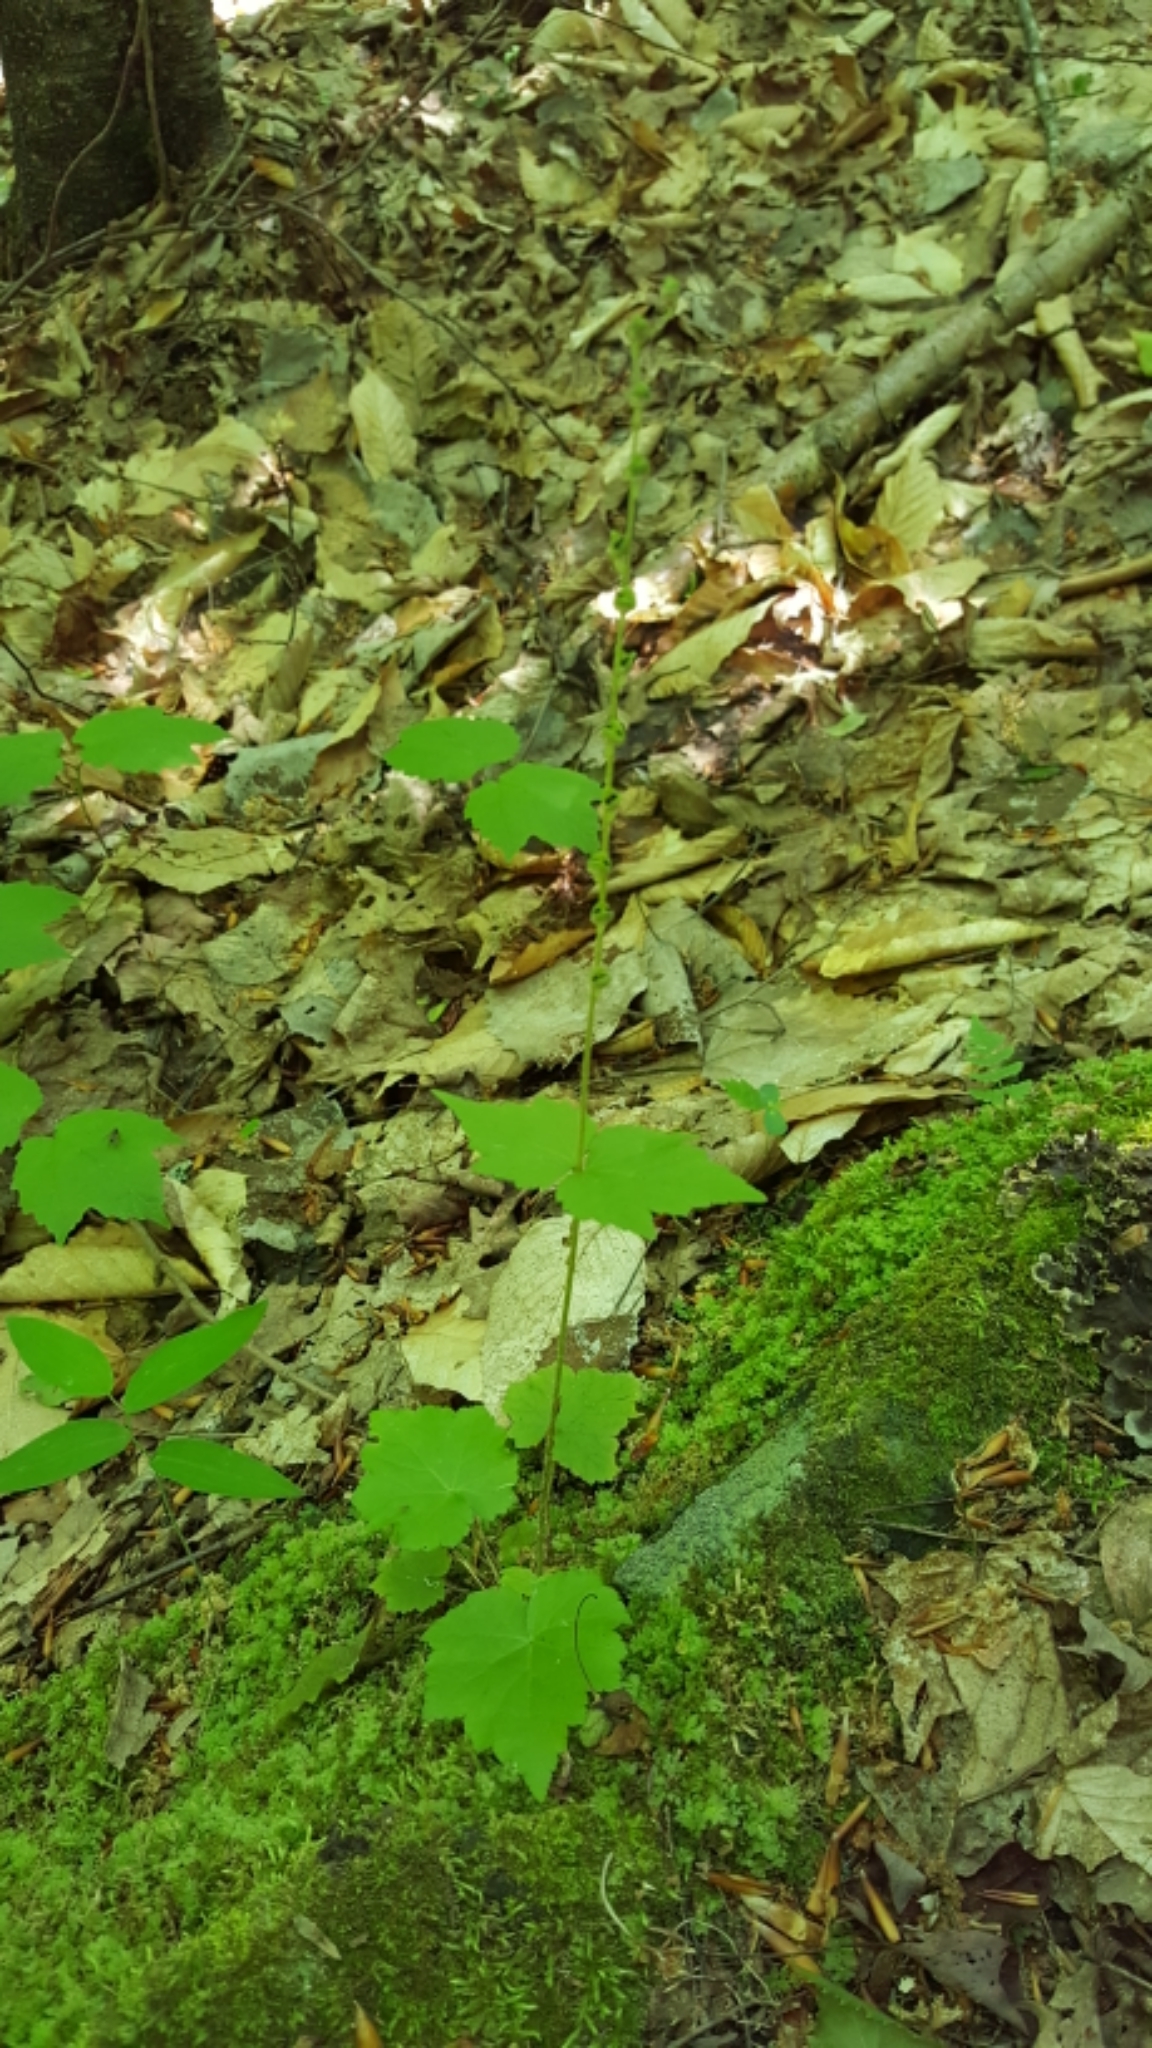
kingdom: Plantae
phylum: Tracheophyta
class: Magnoliopsida
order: Saxifragales
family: Saxifragaceae
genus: Mitella
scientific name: Mitella diphylla
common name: Coolwort
